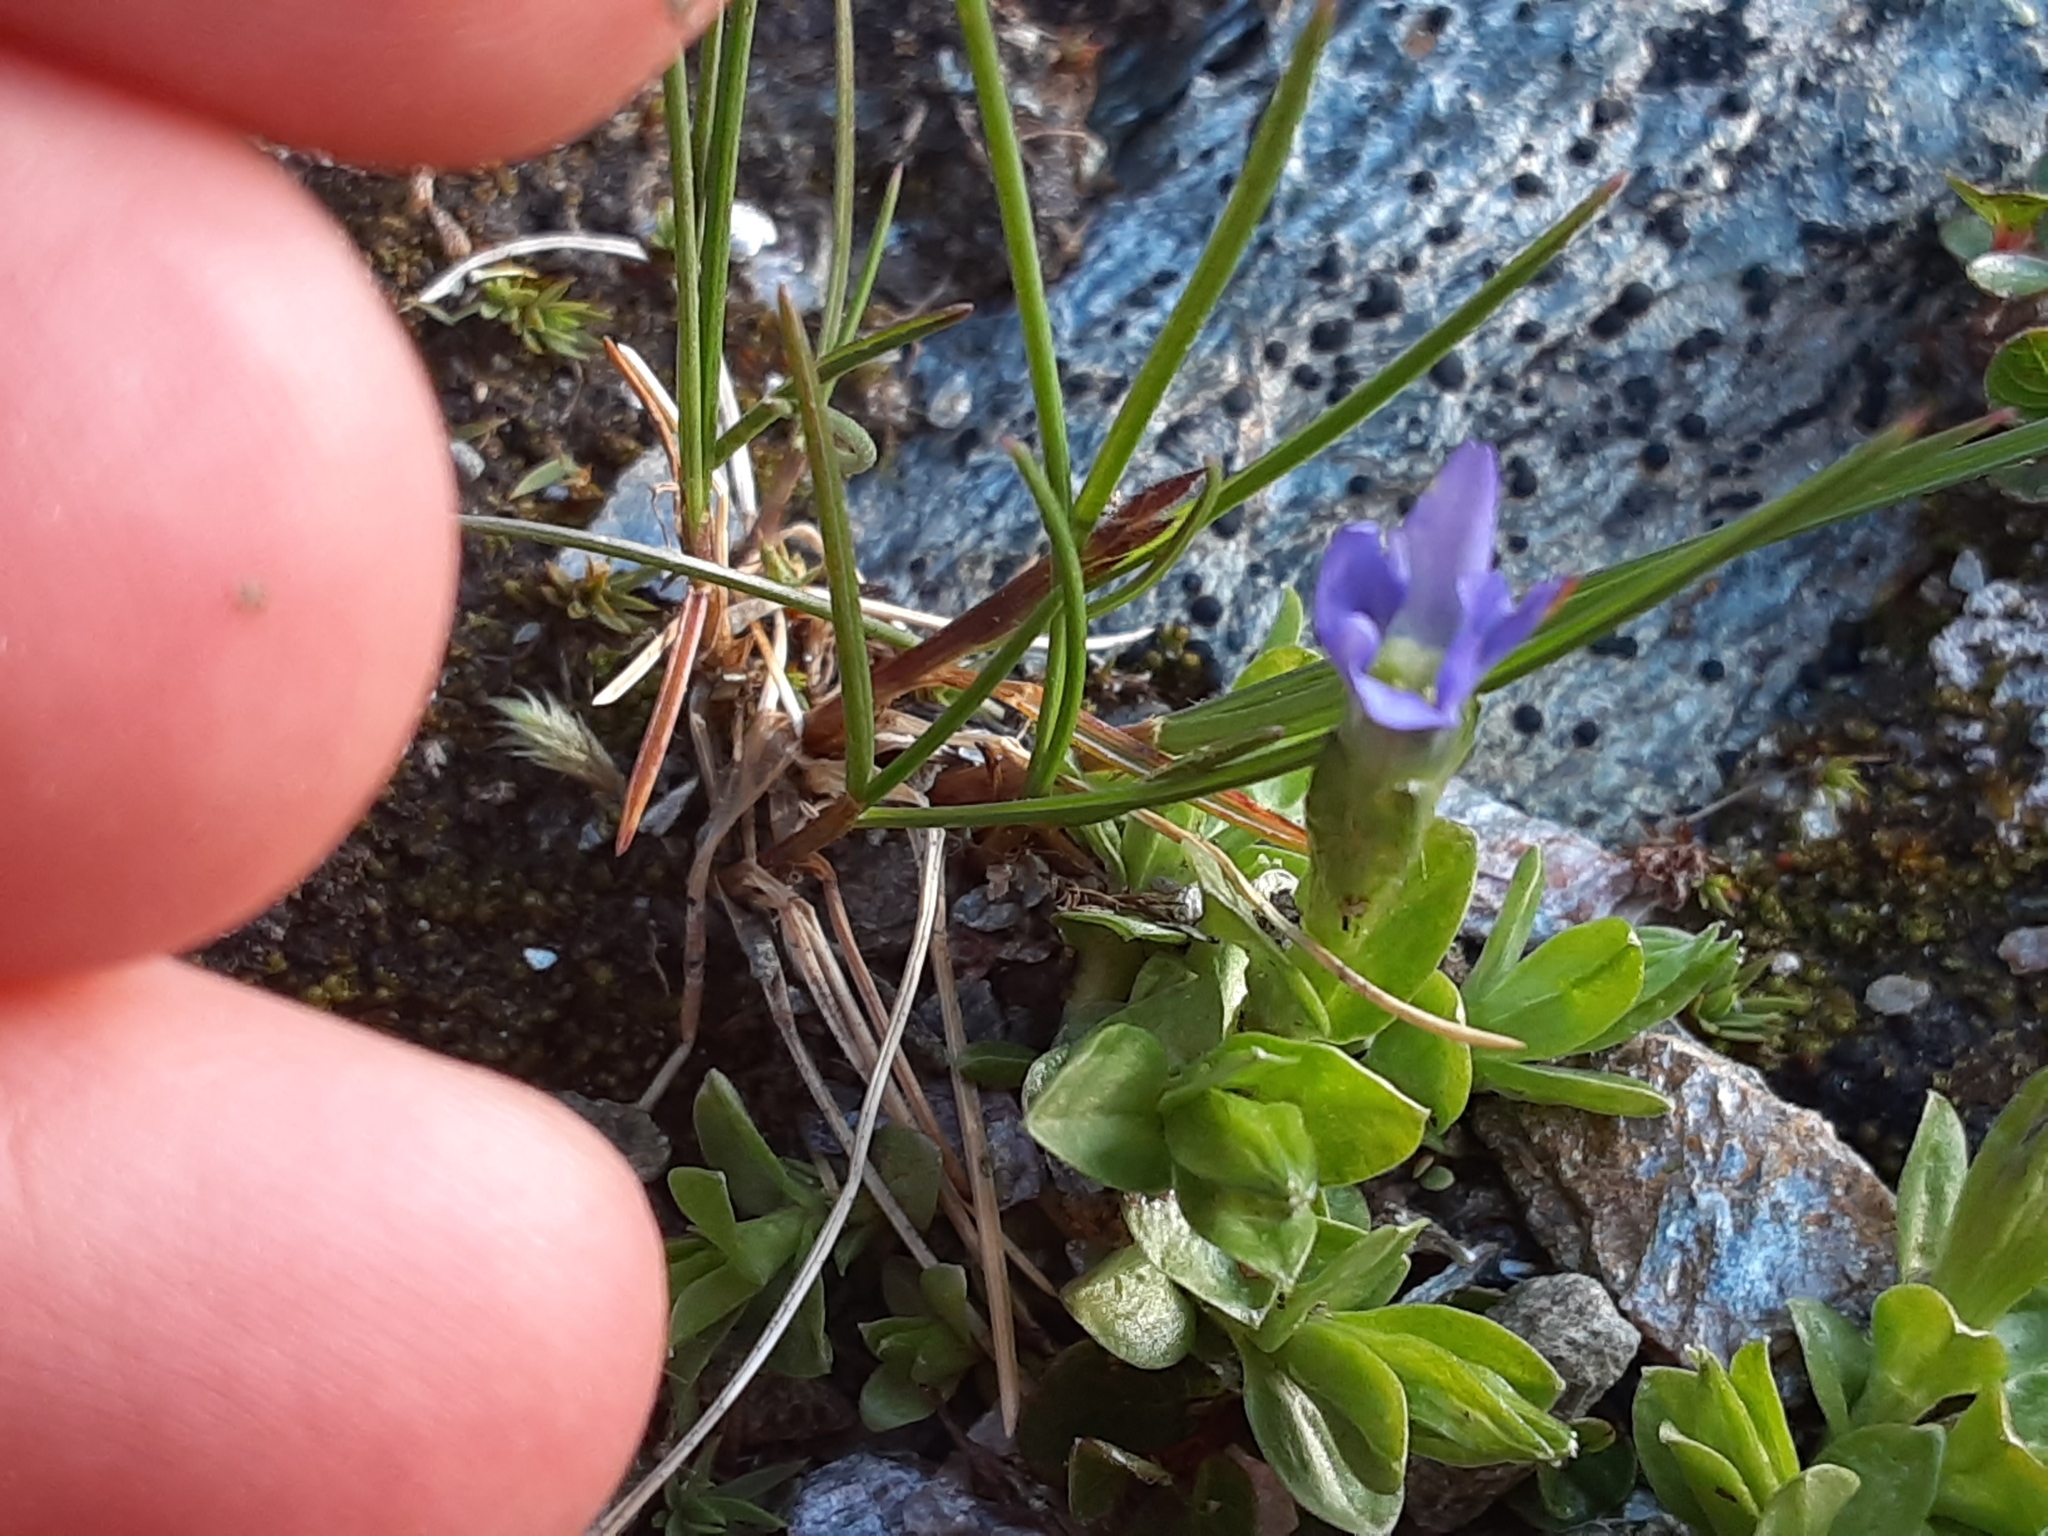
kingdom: Plantae
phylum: Tracheophyta
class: Magnoliopsida
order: Gentianales
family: Gentianaceae
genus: Gentiana
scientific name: Gentiana prostrata
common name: Moss gentian
